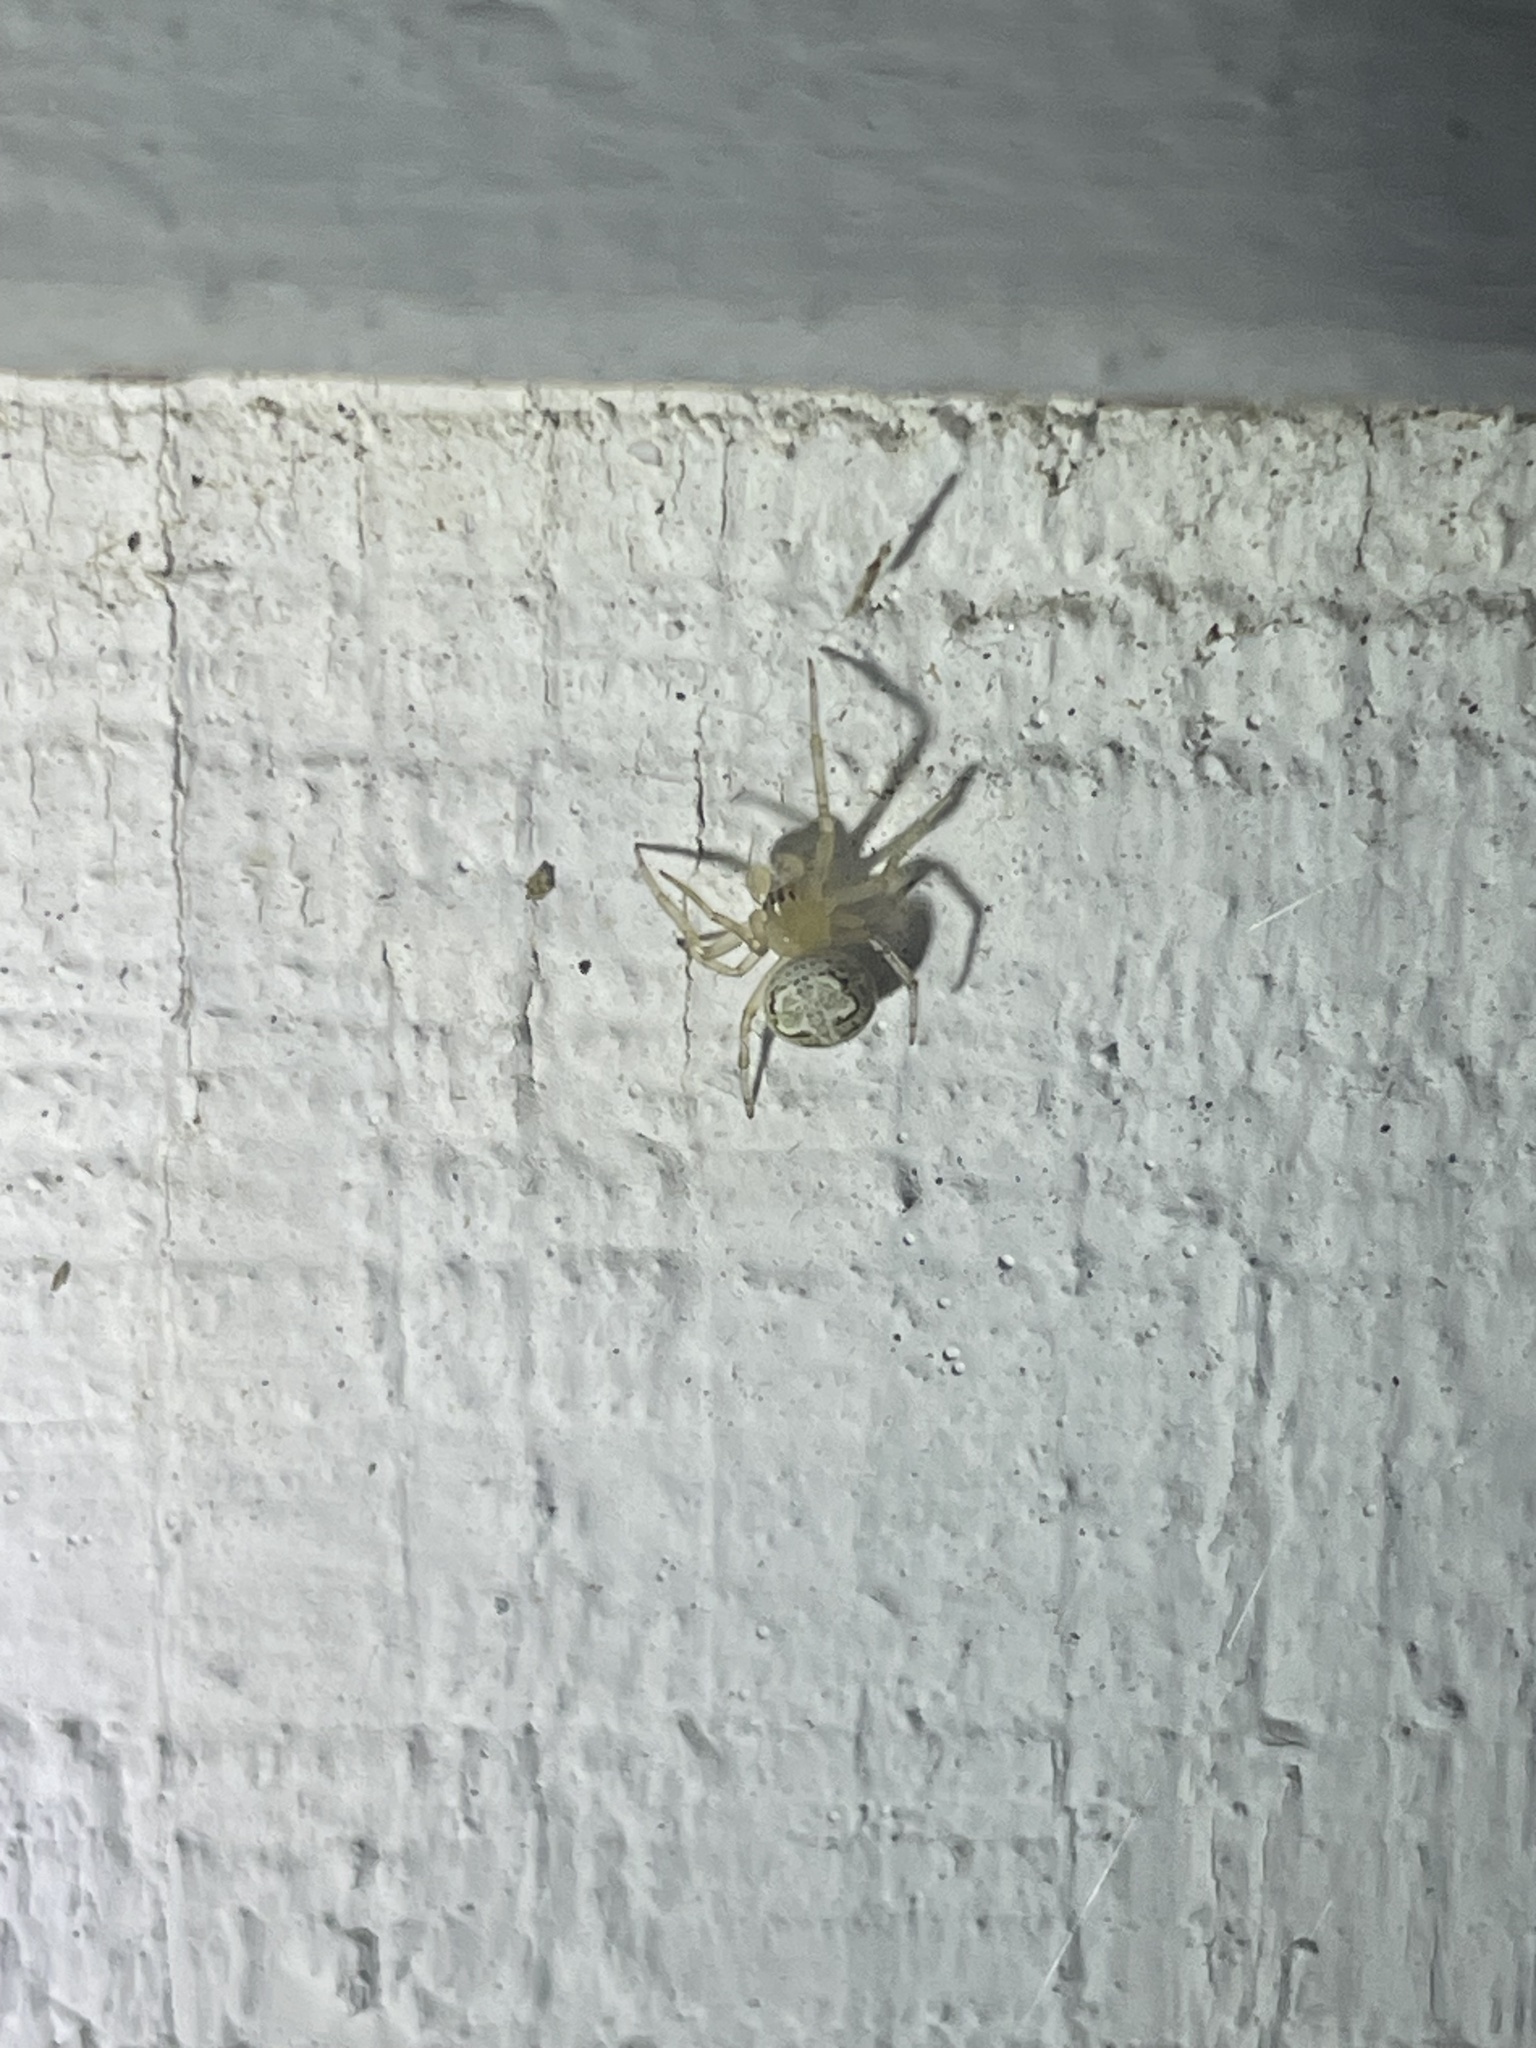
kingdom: Animalia
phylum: Arthropoda
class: Arachnida
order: Araneae
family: Araneidae
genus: Araneus
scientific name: Araneus pegnia
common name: Orb weavers
